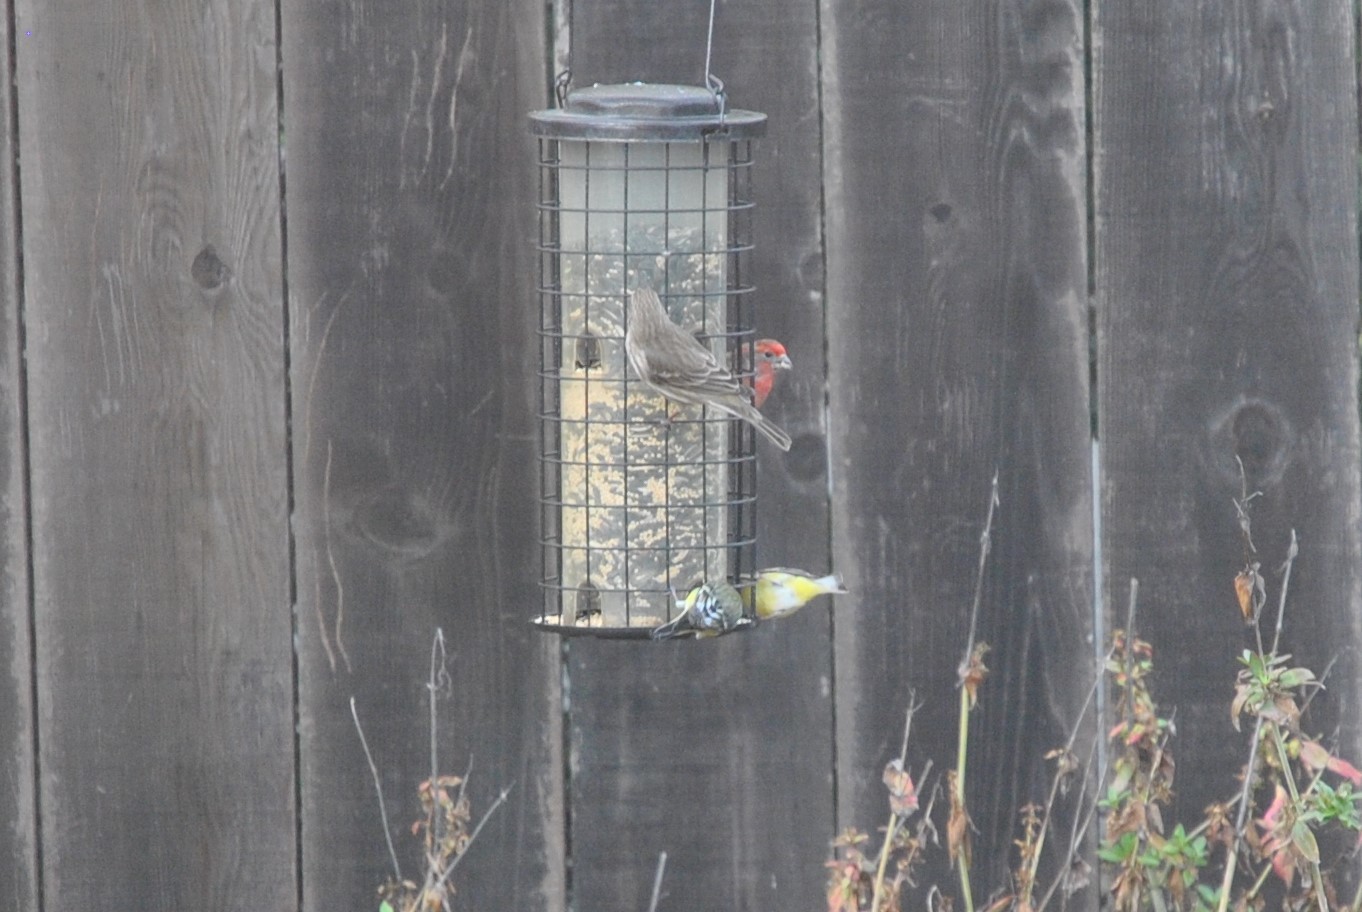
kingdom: Animalia
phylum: Chordata
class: Aves
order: Passeriformes
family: Fringillidae
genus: Haemorhous
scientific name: Haemorhous mexicanus
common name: House finch
